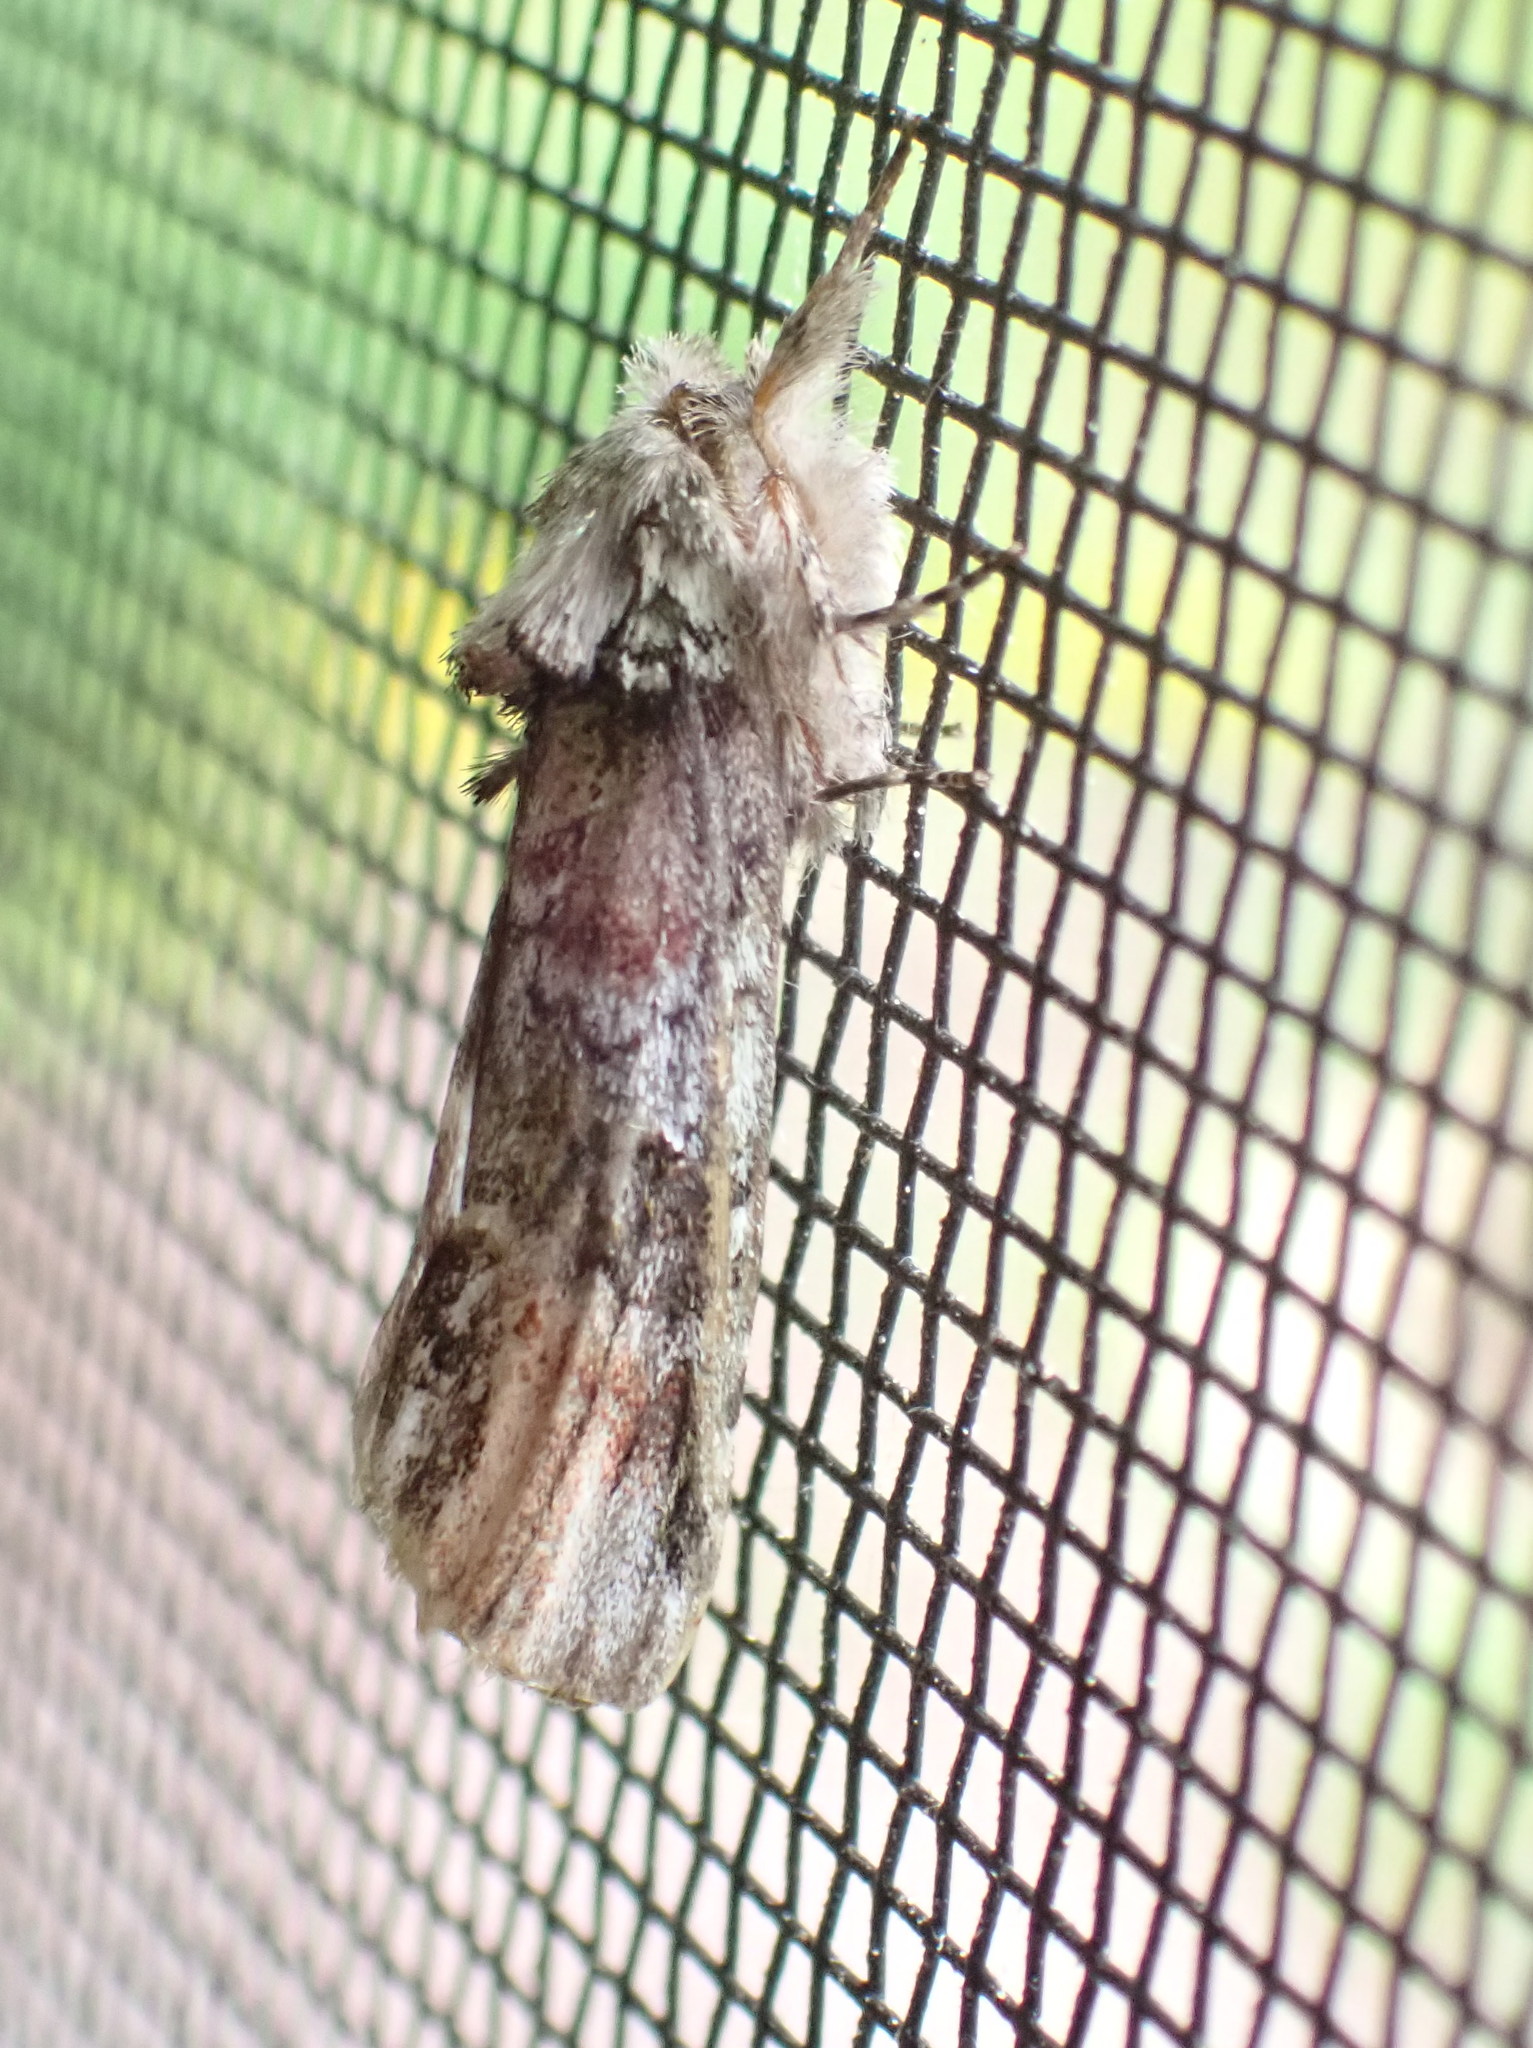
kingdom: Animalia
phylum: Arthropoda
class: Insecta
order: Lepidoptera
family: Notodontidae
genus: Schizura
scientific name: Schizura
